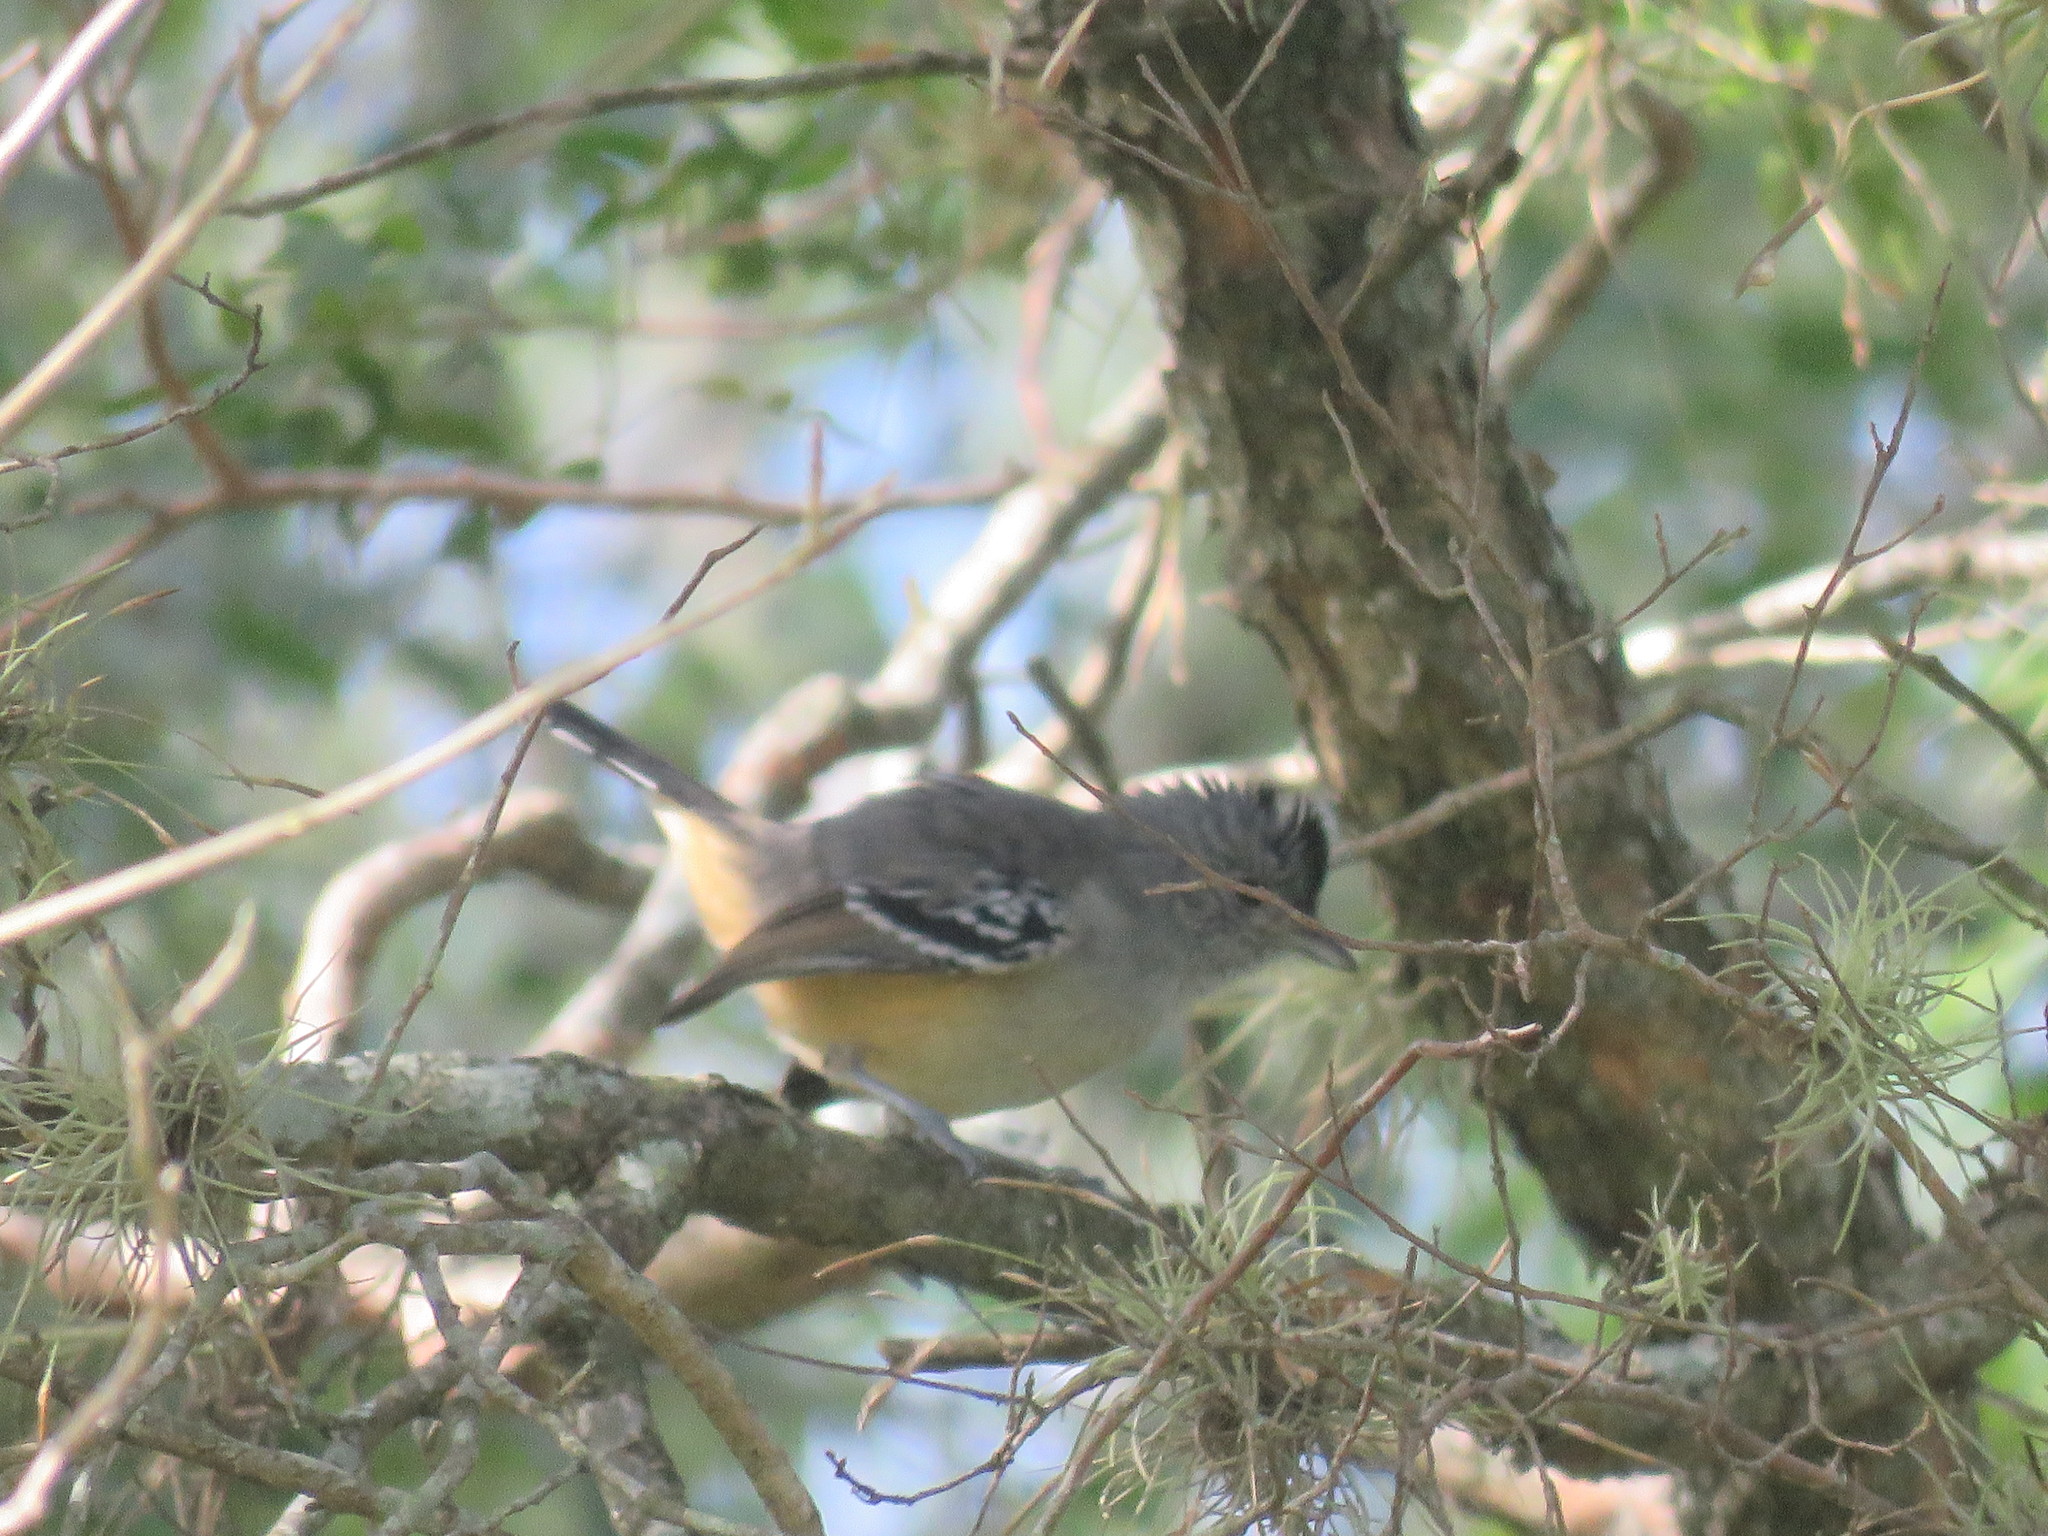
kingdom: Animalia
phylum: Chordata
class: Aves
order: Passeriformes
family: Thamnophilidae
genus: Thamnophilus
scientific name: Thamnophilus caerulescens
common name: Variable antshrike
